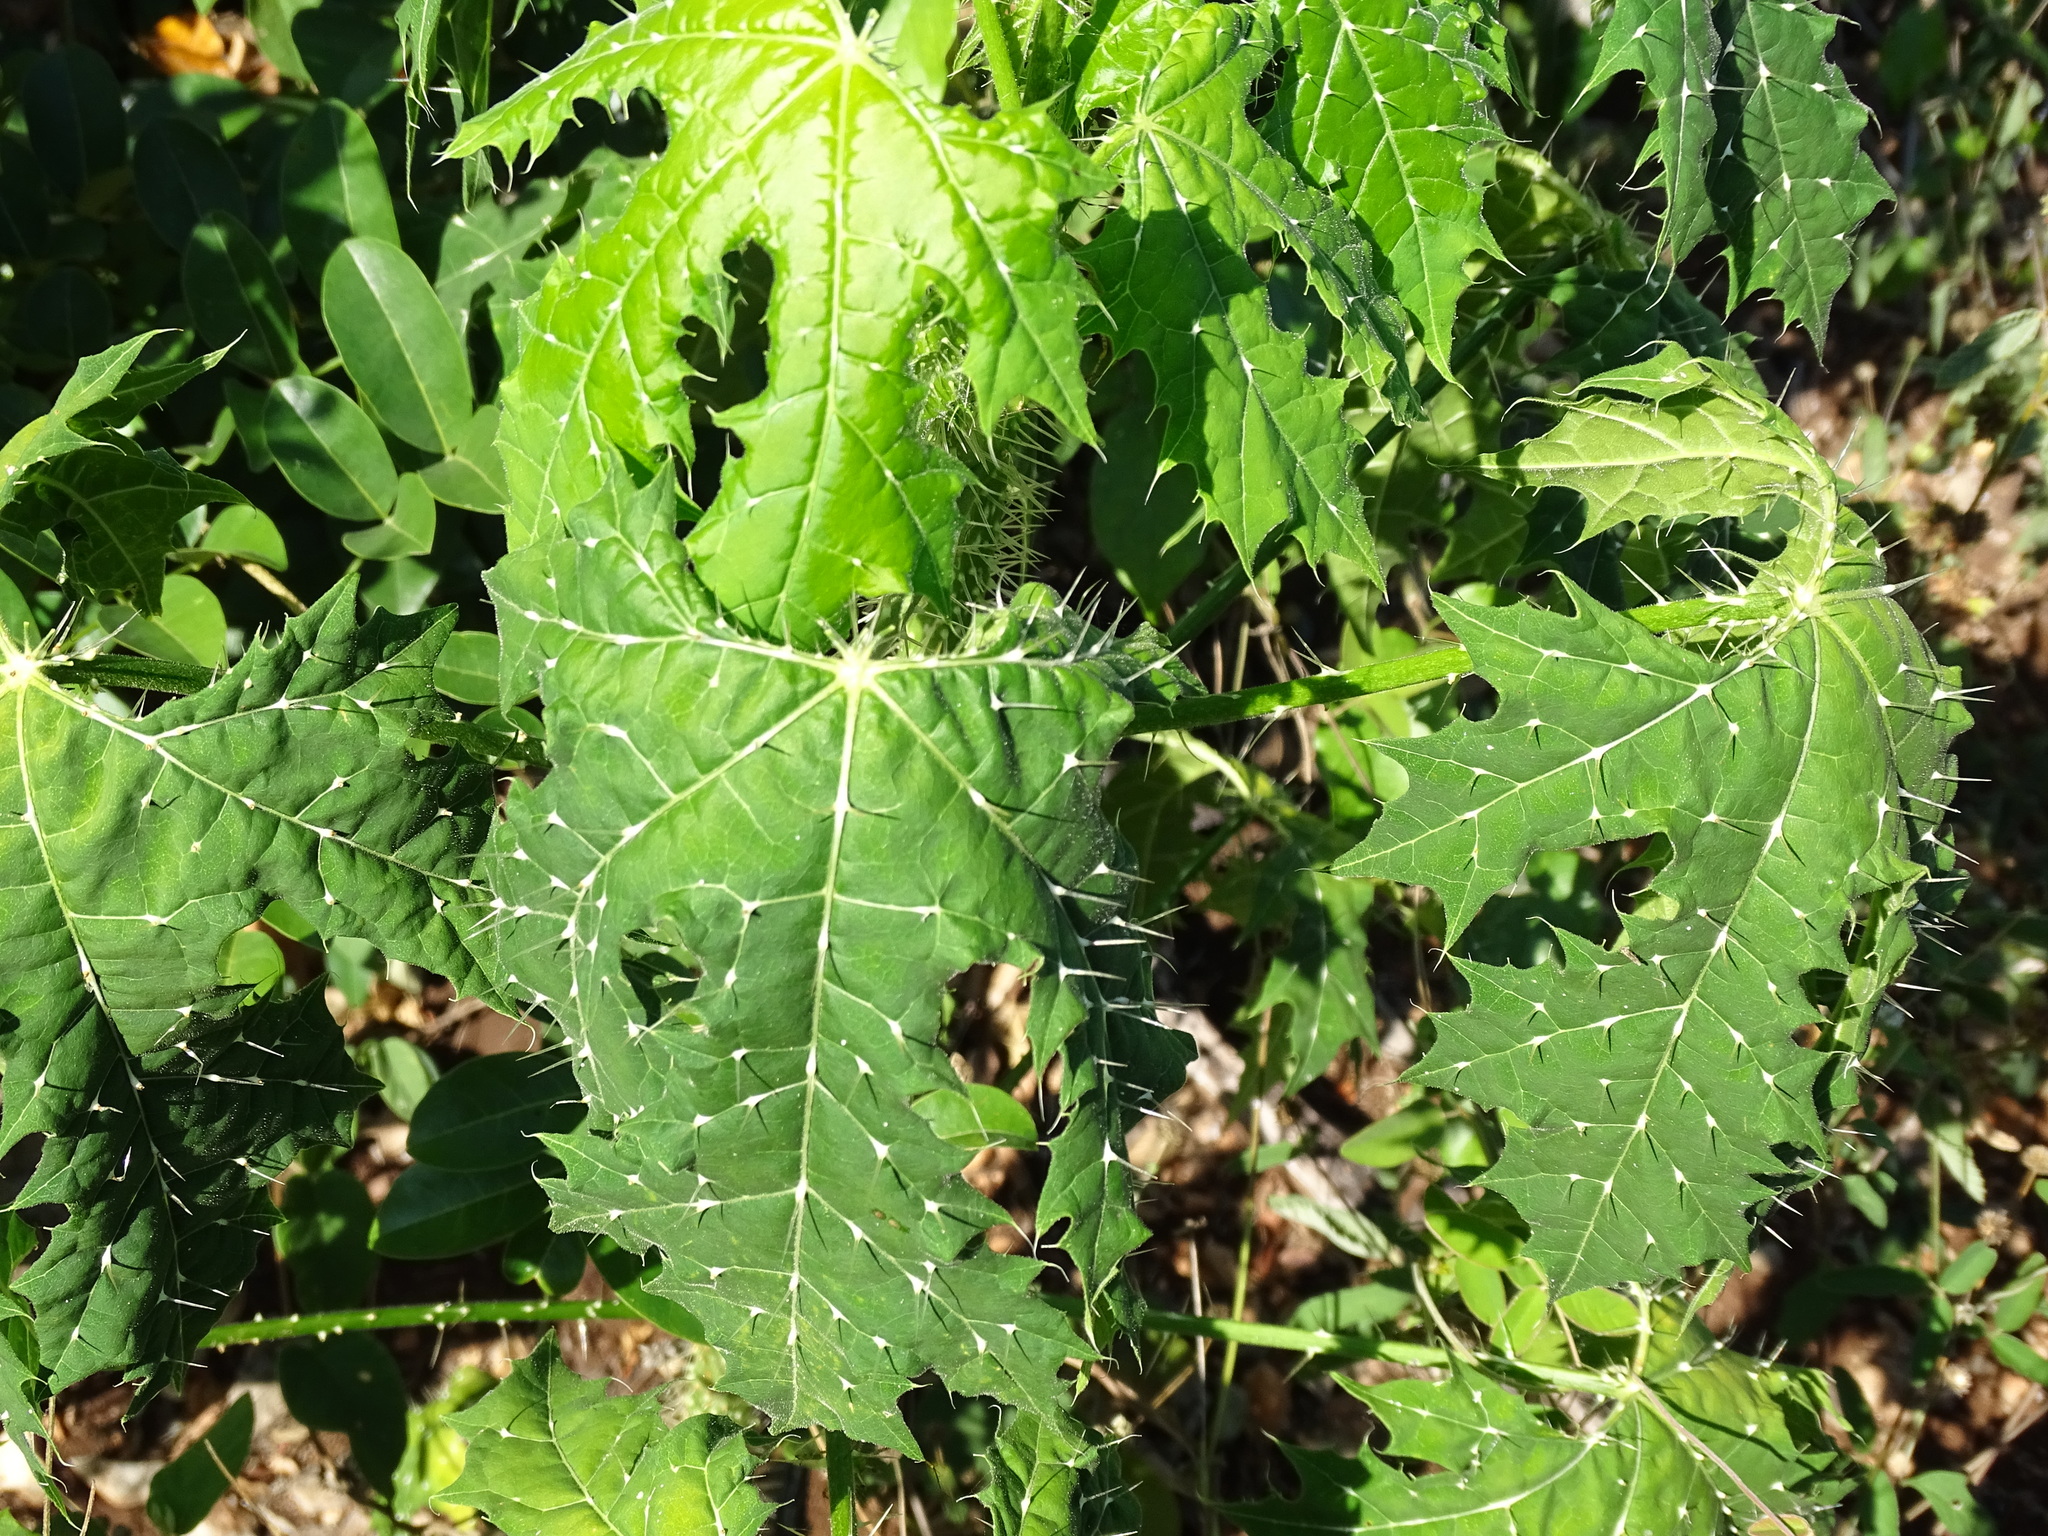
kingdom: Plantae
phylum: Tracheophyta
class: Magnoliopsida
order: Malpighiales
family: Euphorbiaceae
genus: Cnidoscolus
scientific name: Cnidoscolus souzae
